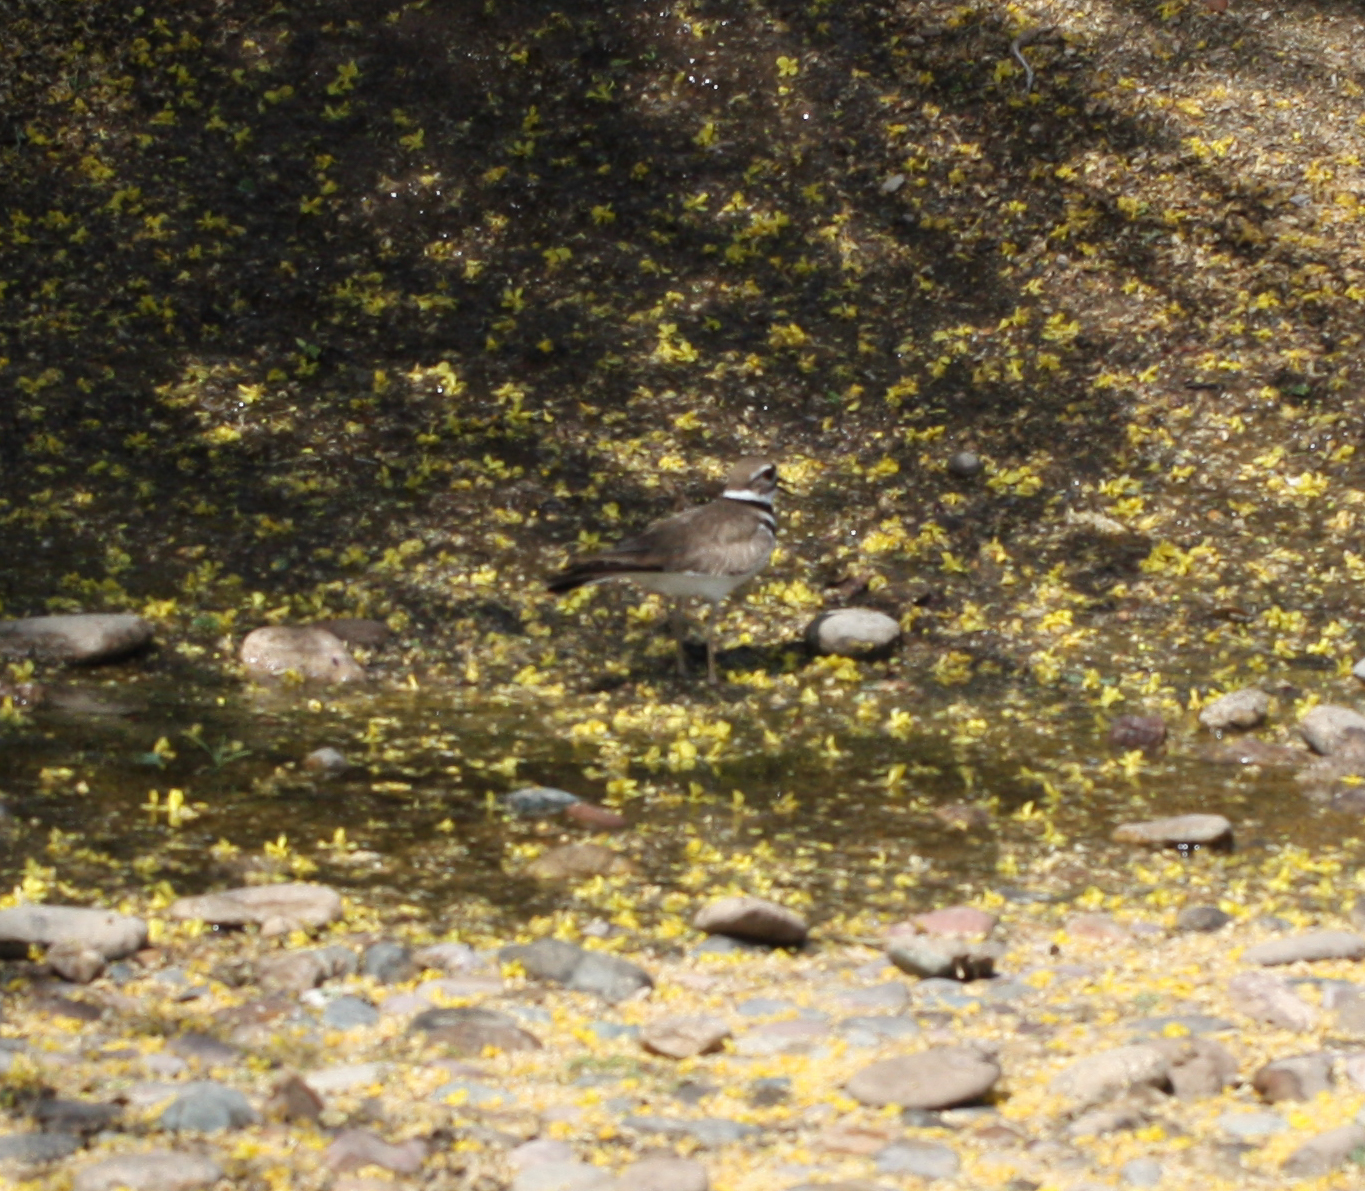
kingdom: Animalia
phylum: Chordata
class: Aves
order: Charadriiformes
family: Charadriidae
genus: Charadrius
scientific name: Charadrius vociferus
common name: Killdeer
